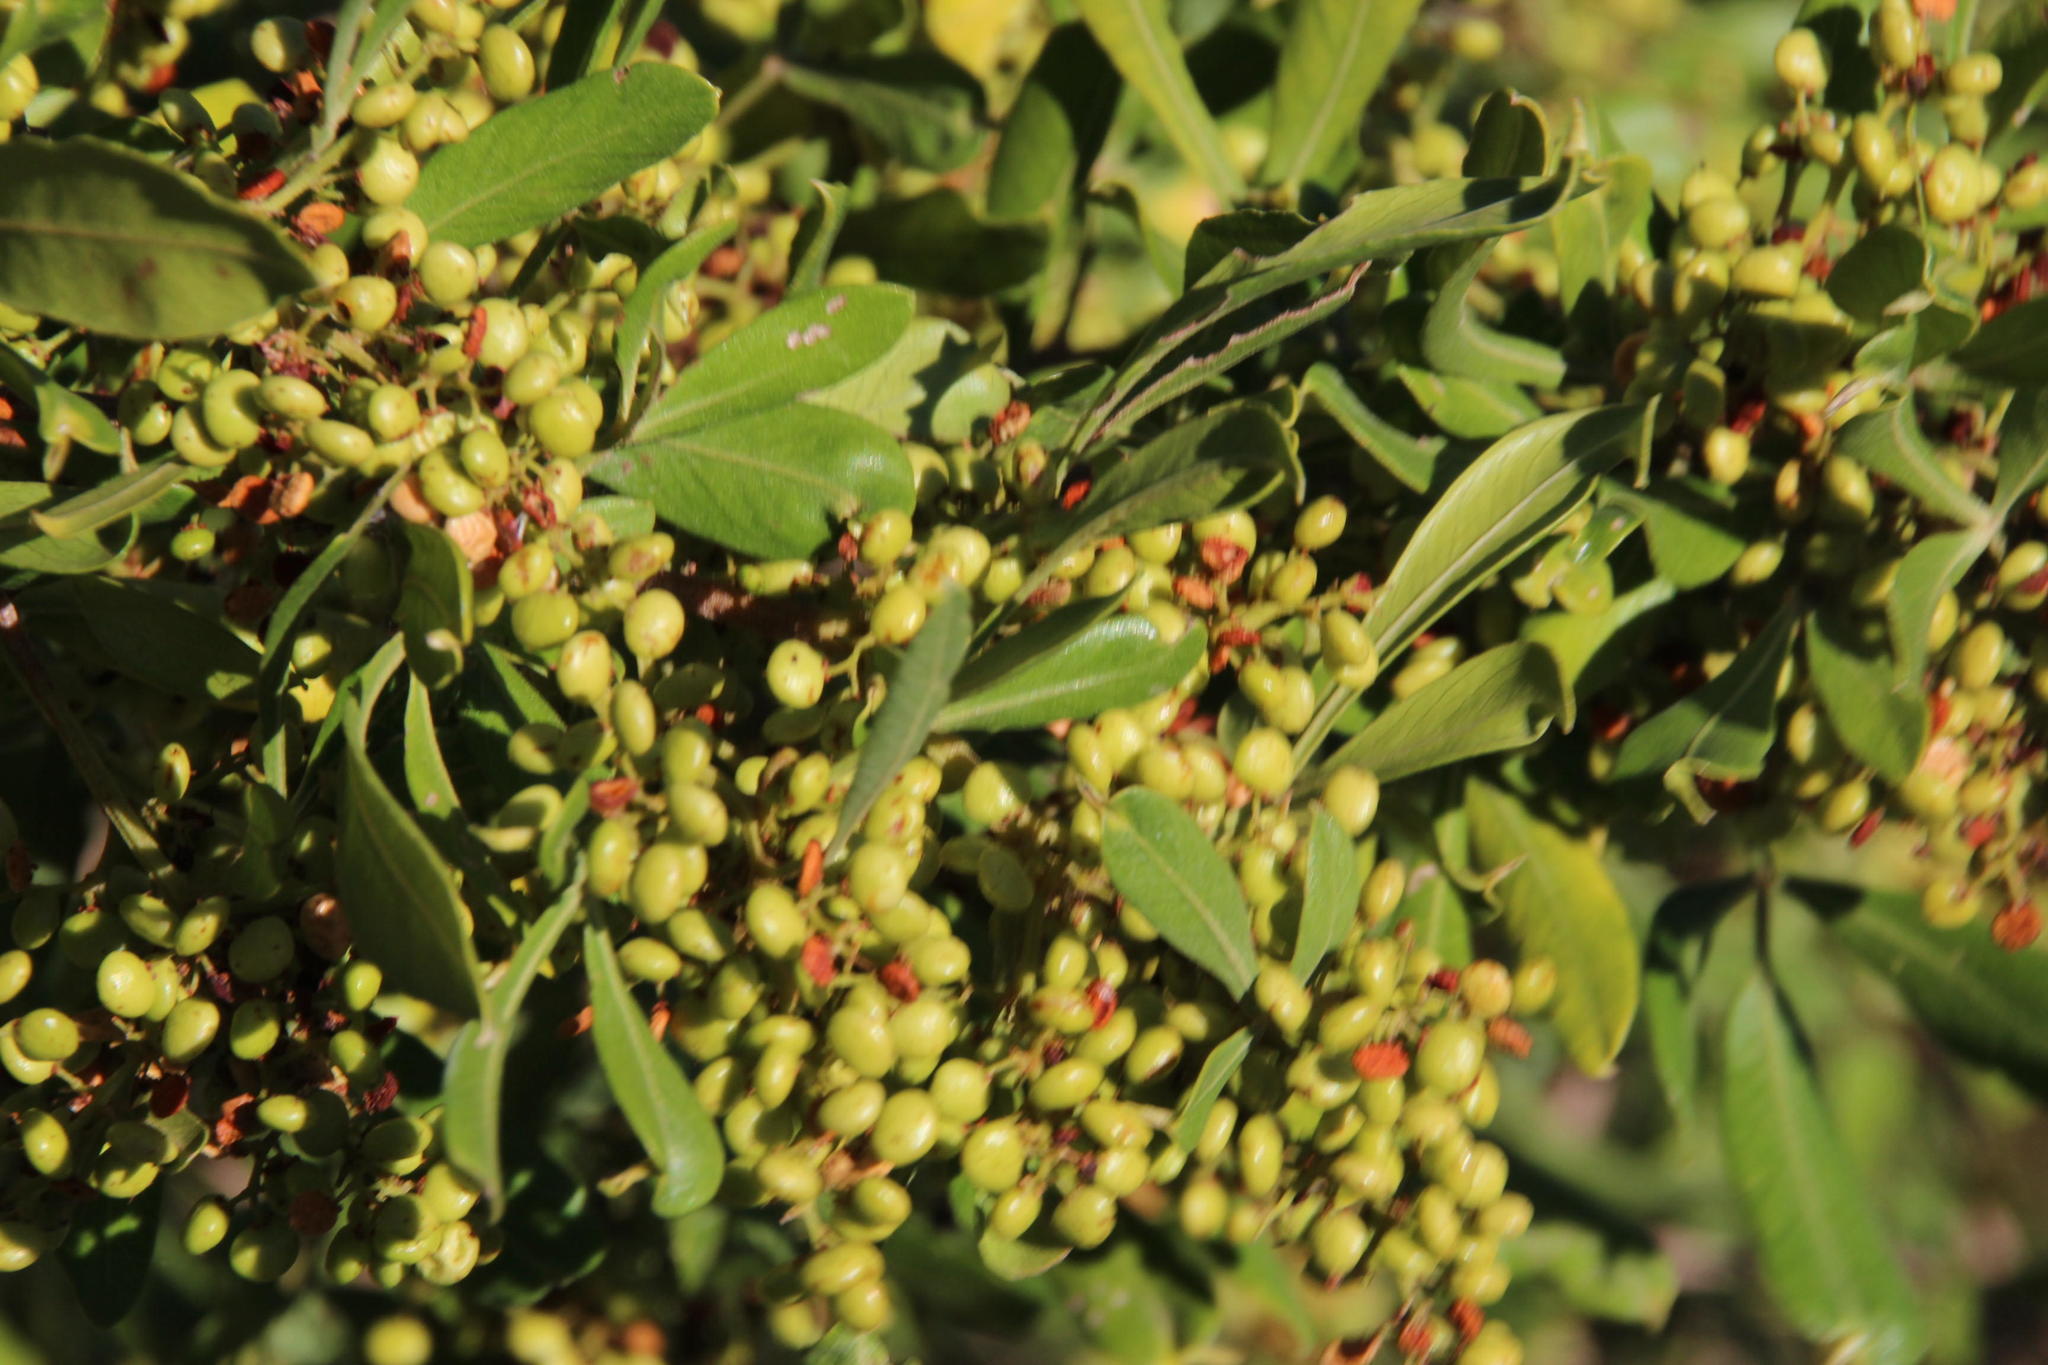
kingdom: Plantae
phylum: Tracheophyta
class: Magnoliopsida
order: Sapindales
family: Anacardiaceae
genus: Searsia
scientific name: Searsia pallens
